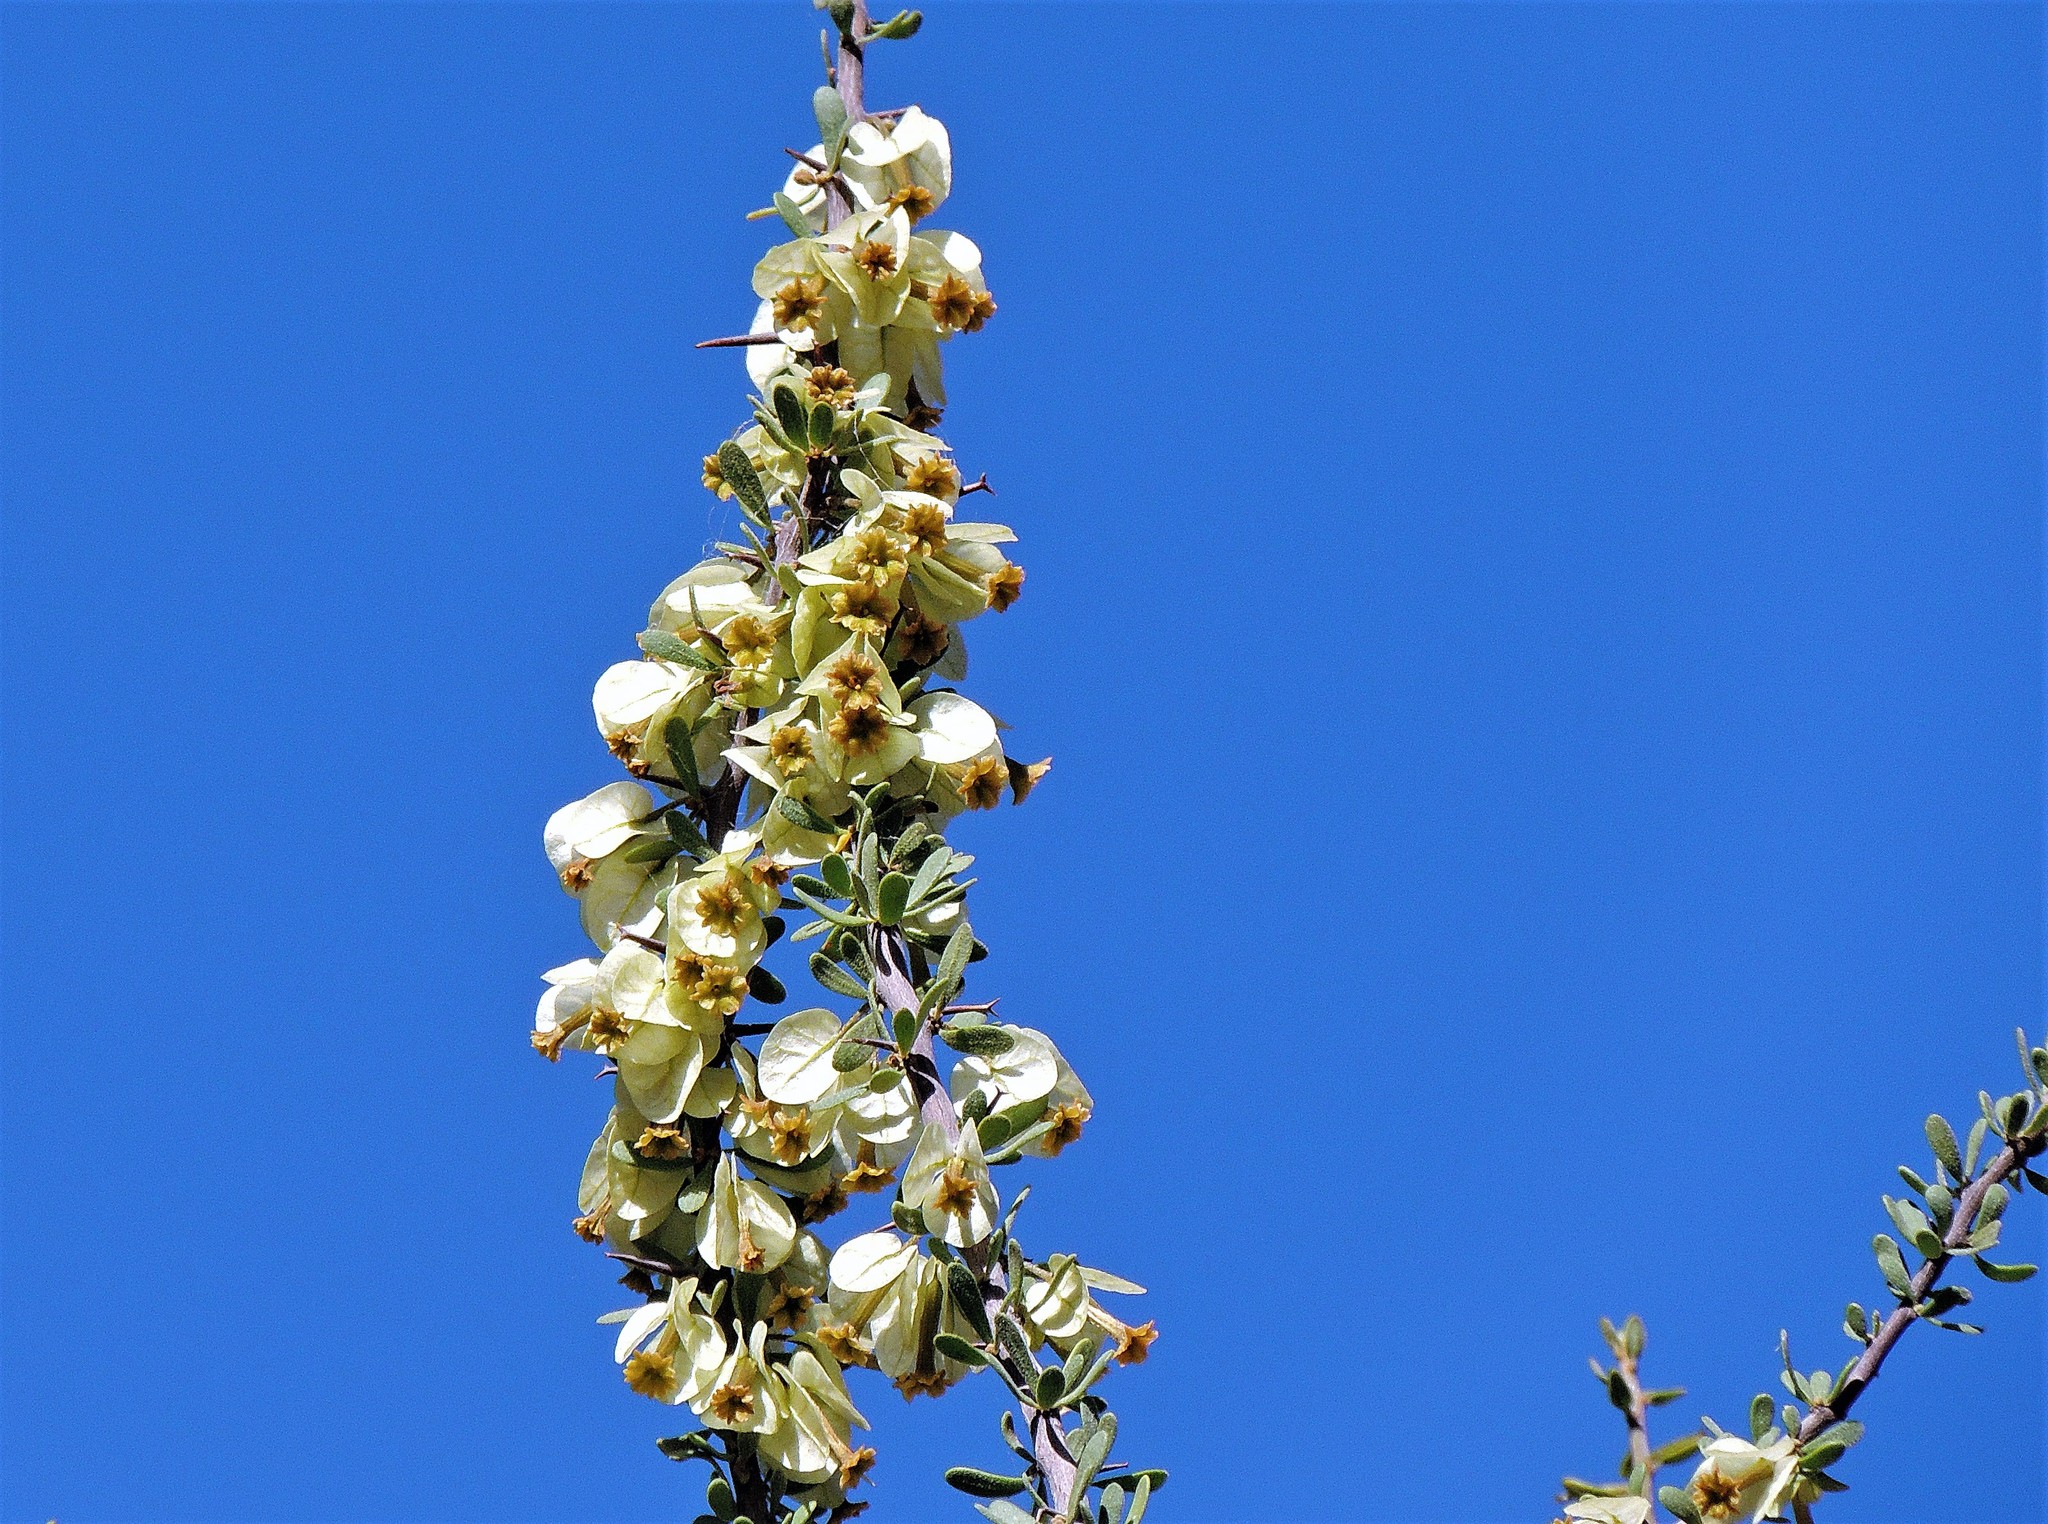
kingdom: Plantae
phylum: Tracheophyta
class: Magnoliopsida
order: Caryophyllales
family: Nyctaginaceae
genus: Bougainvillea
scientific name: Bougainvillea spinosa
